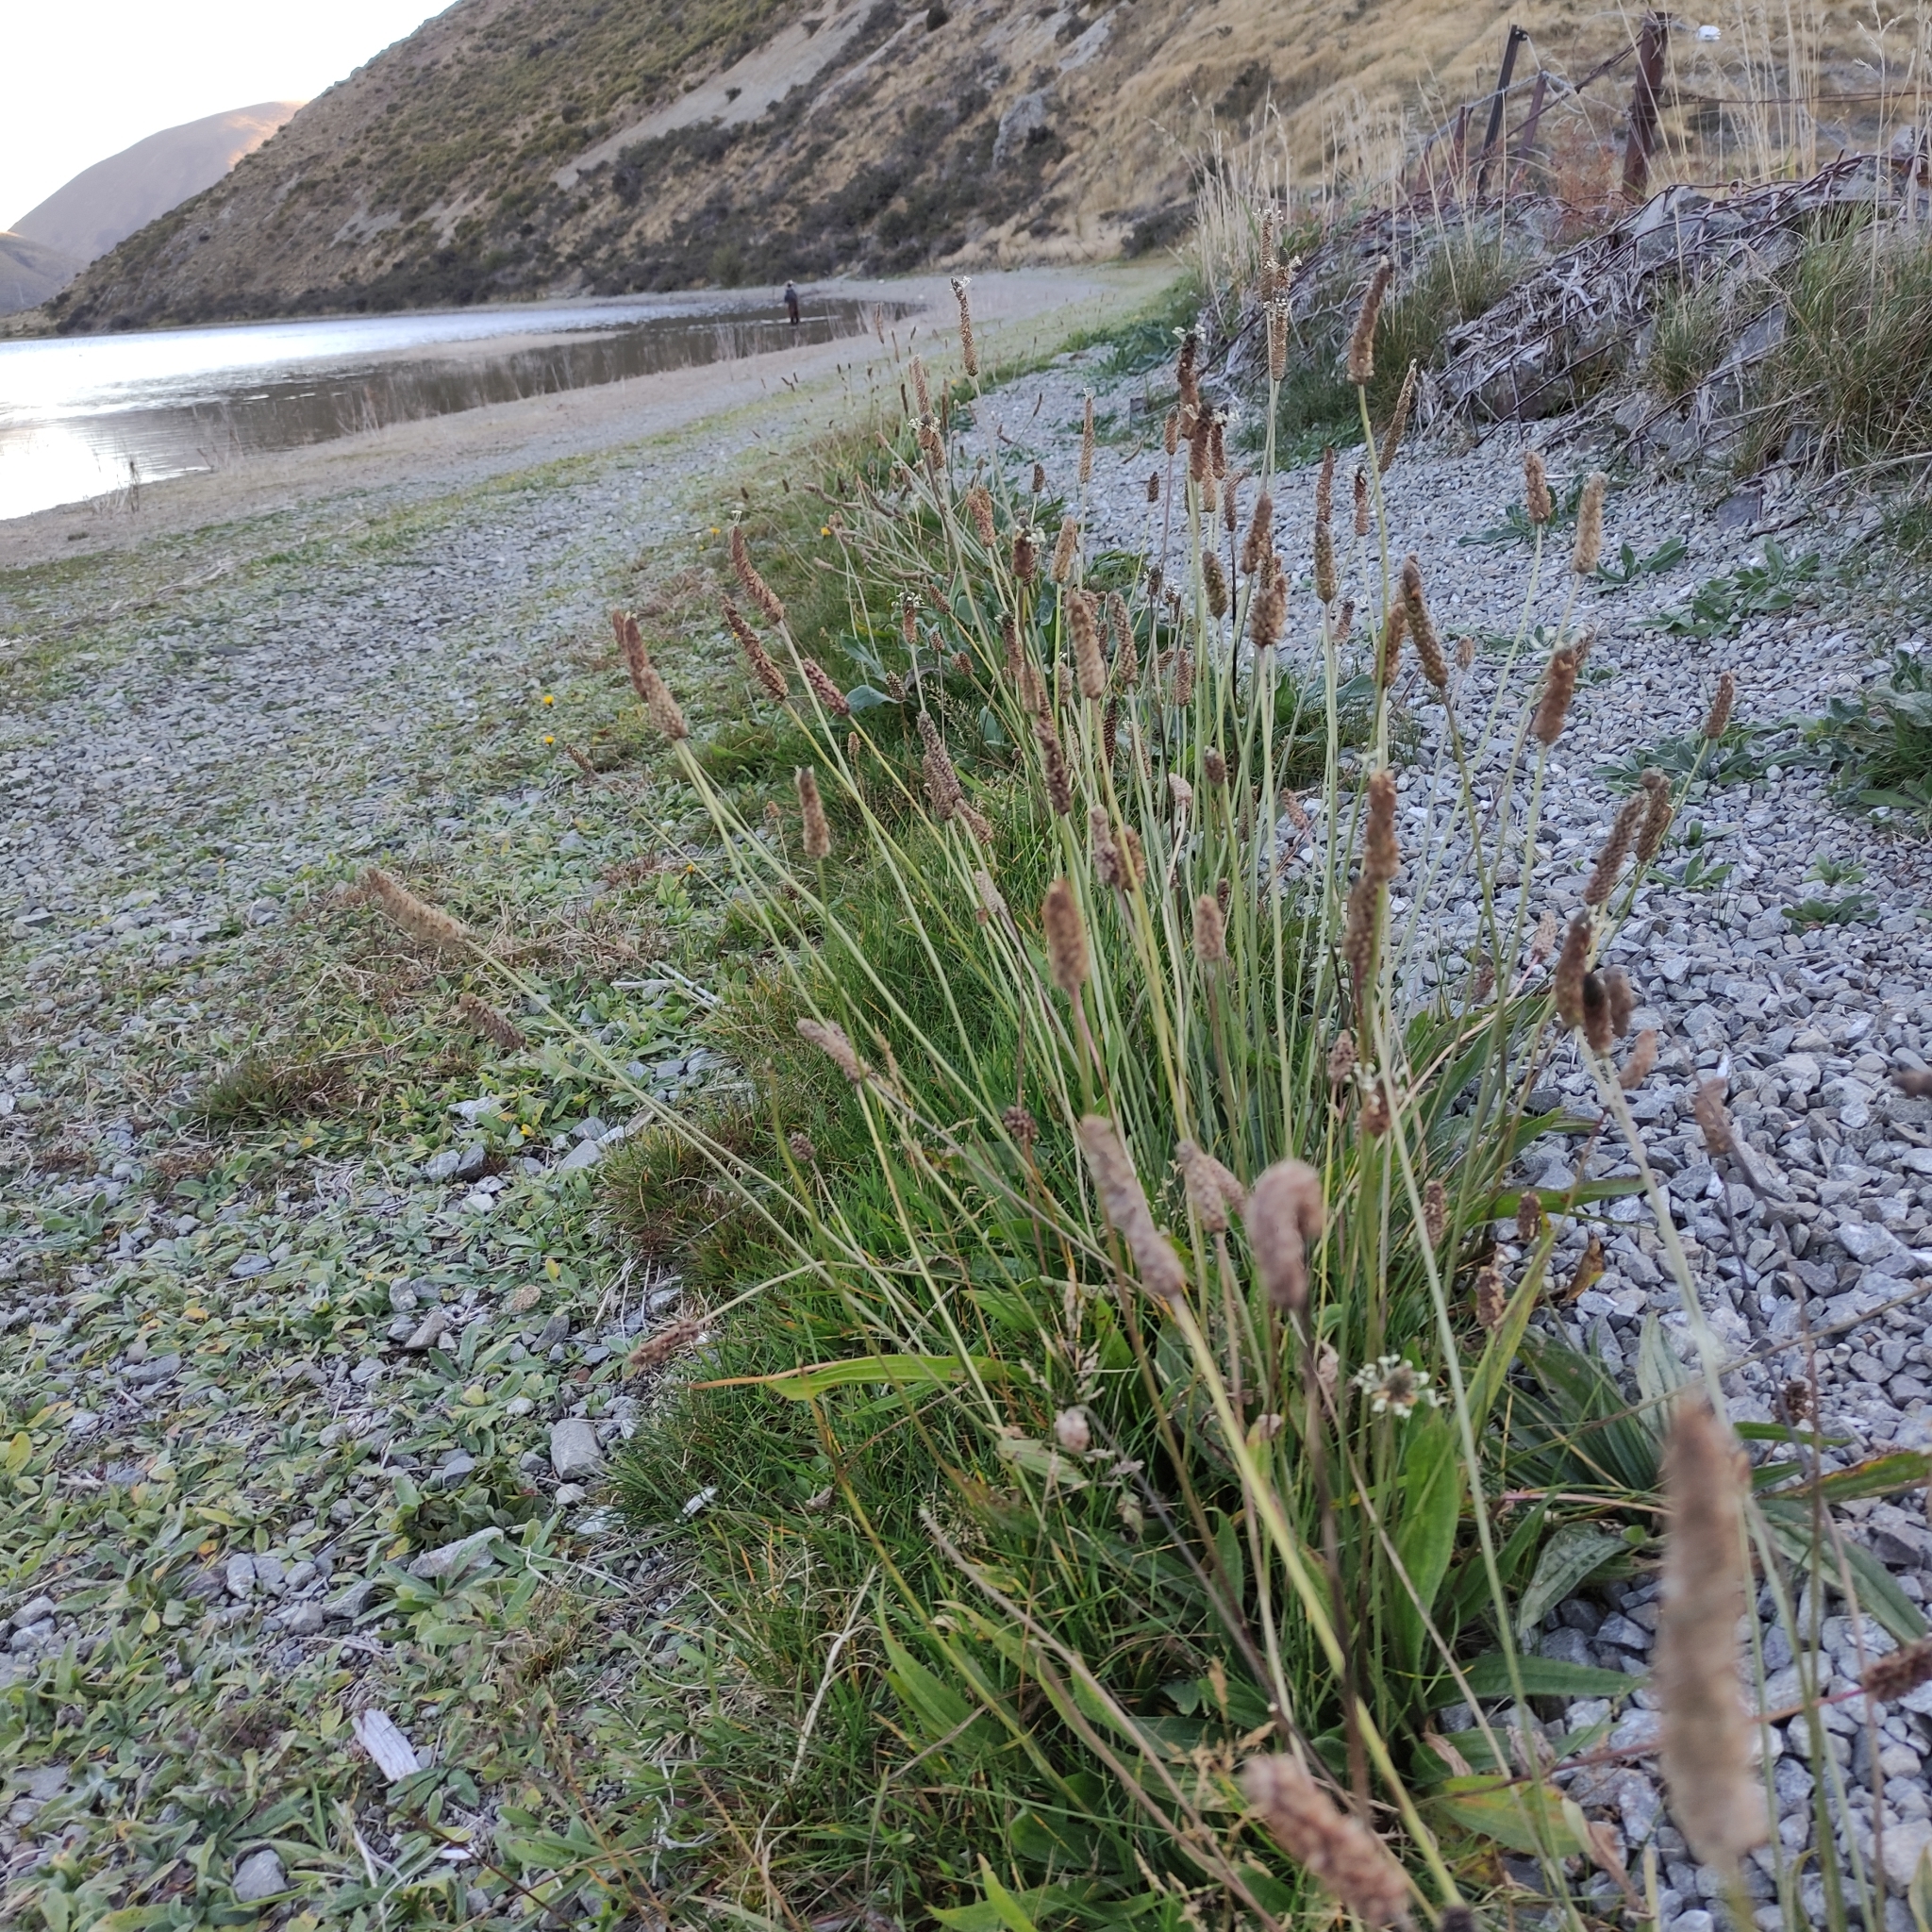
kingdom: Plantae
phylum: Tracheophyta
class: Magnoliopsida
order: Lamiales
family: Plantaginaceae
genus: Plantago
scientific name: Plantago lanceolata
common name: Ribwort plantain
